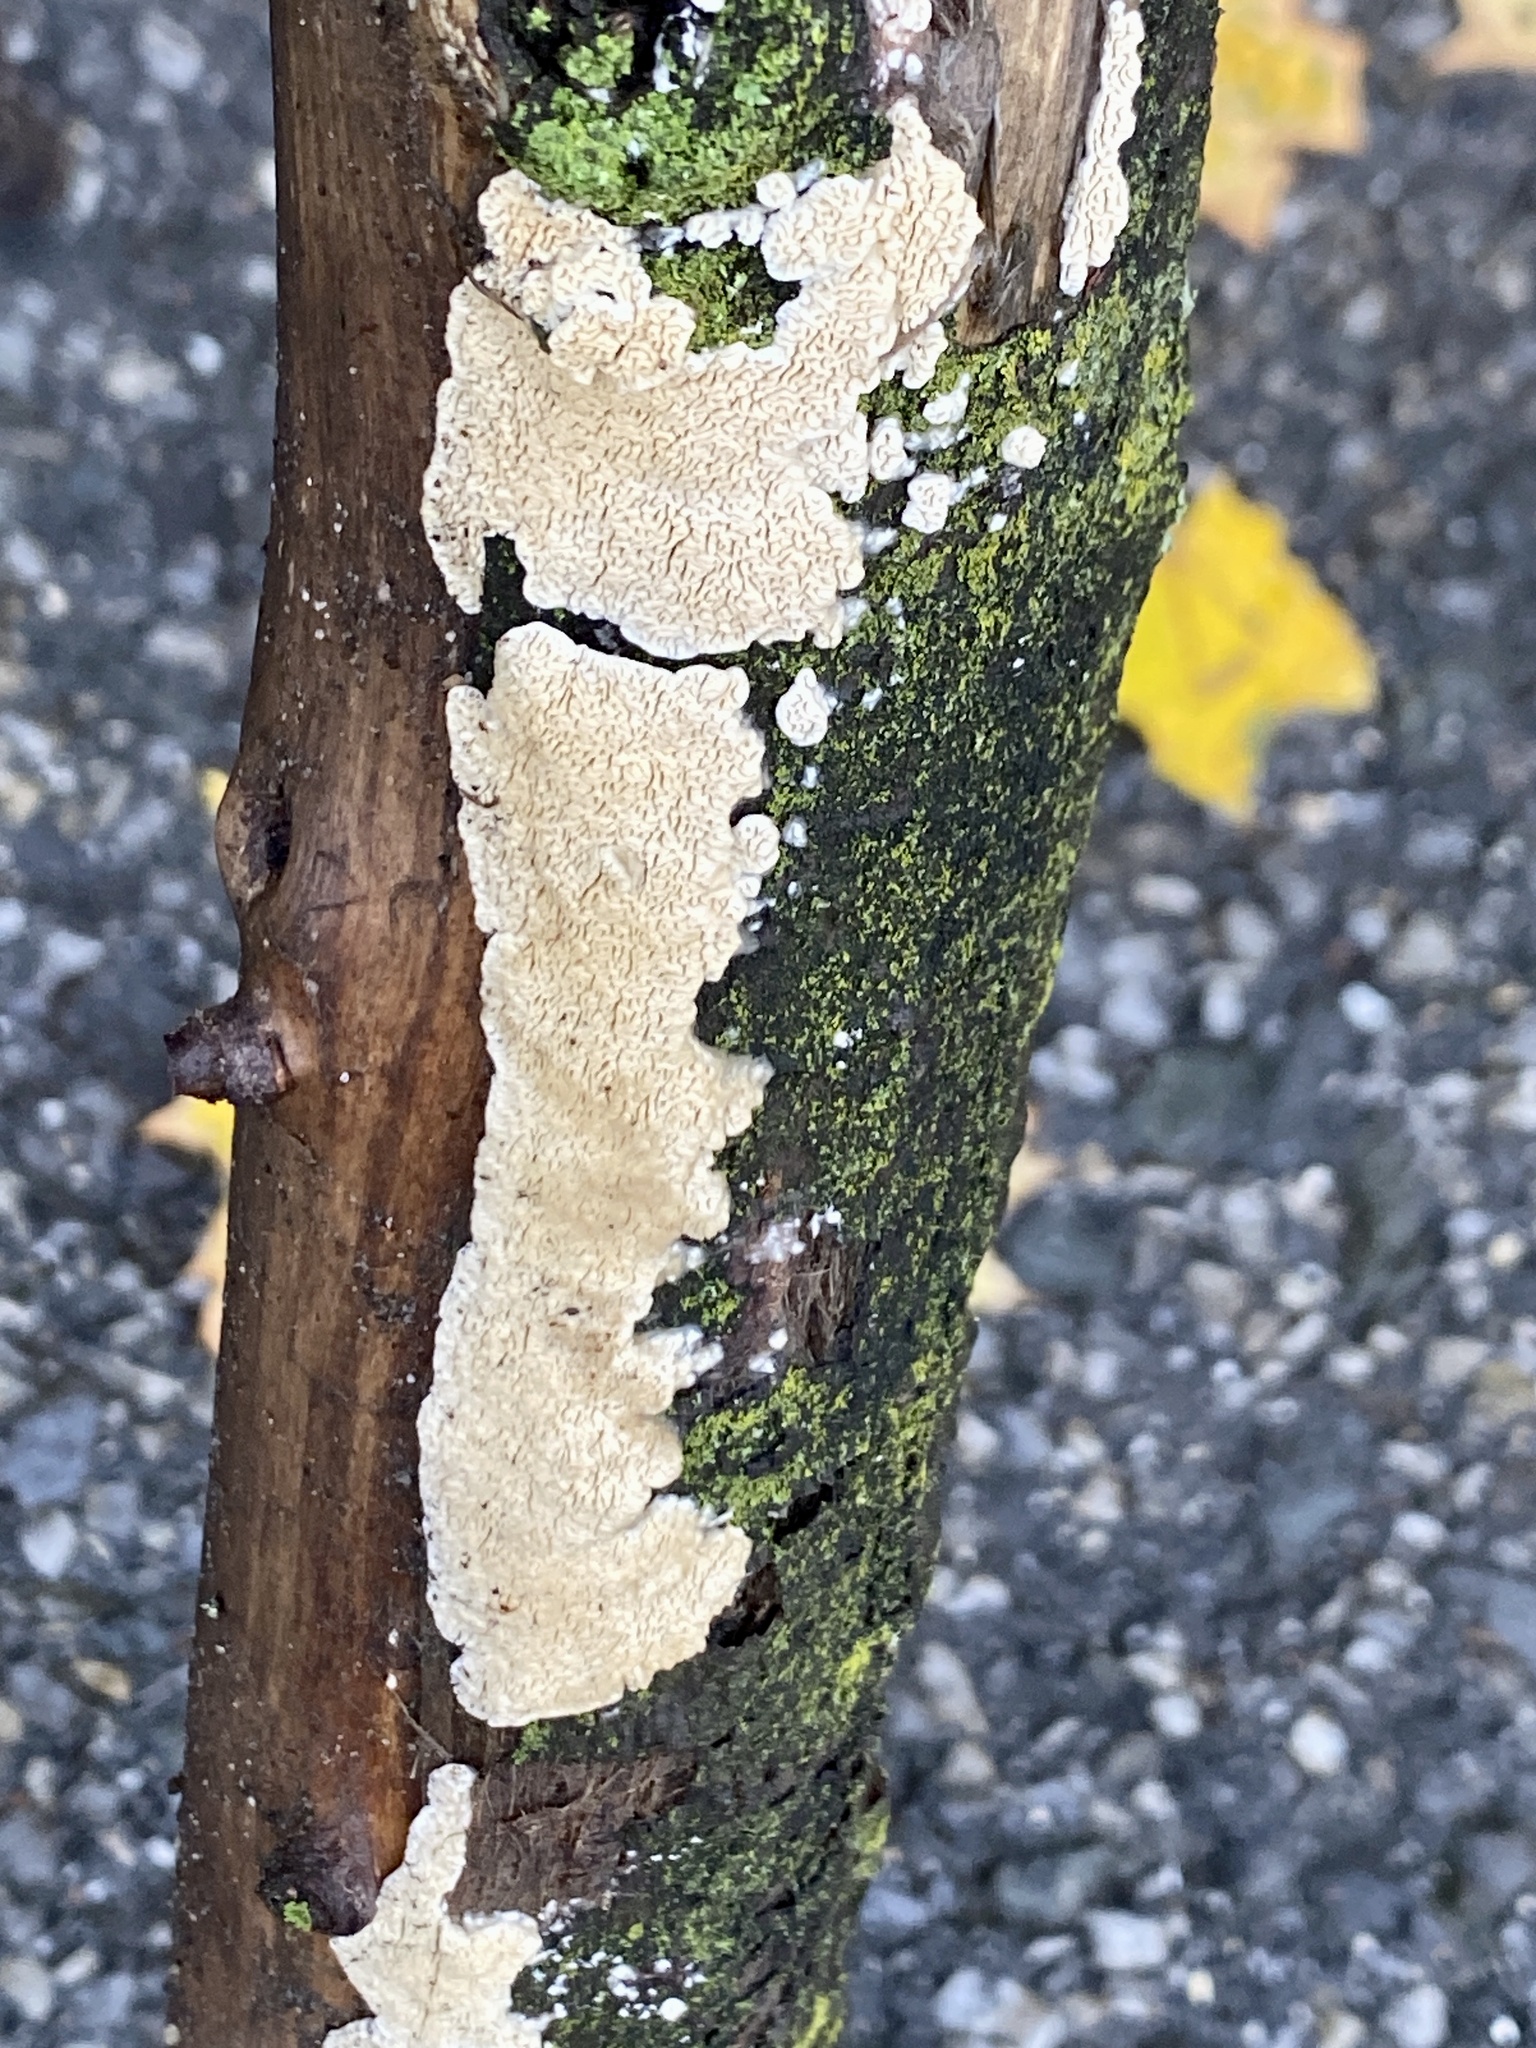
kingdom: Fungi
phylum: Basidiomycota
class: Agaricomycetes
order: Polyporales
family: Irpicaceae
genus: Irpex
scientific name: Irpex lacteus
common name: Milk-white toothed polypore
